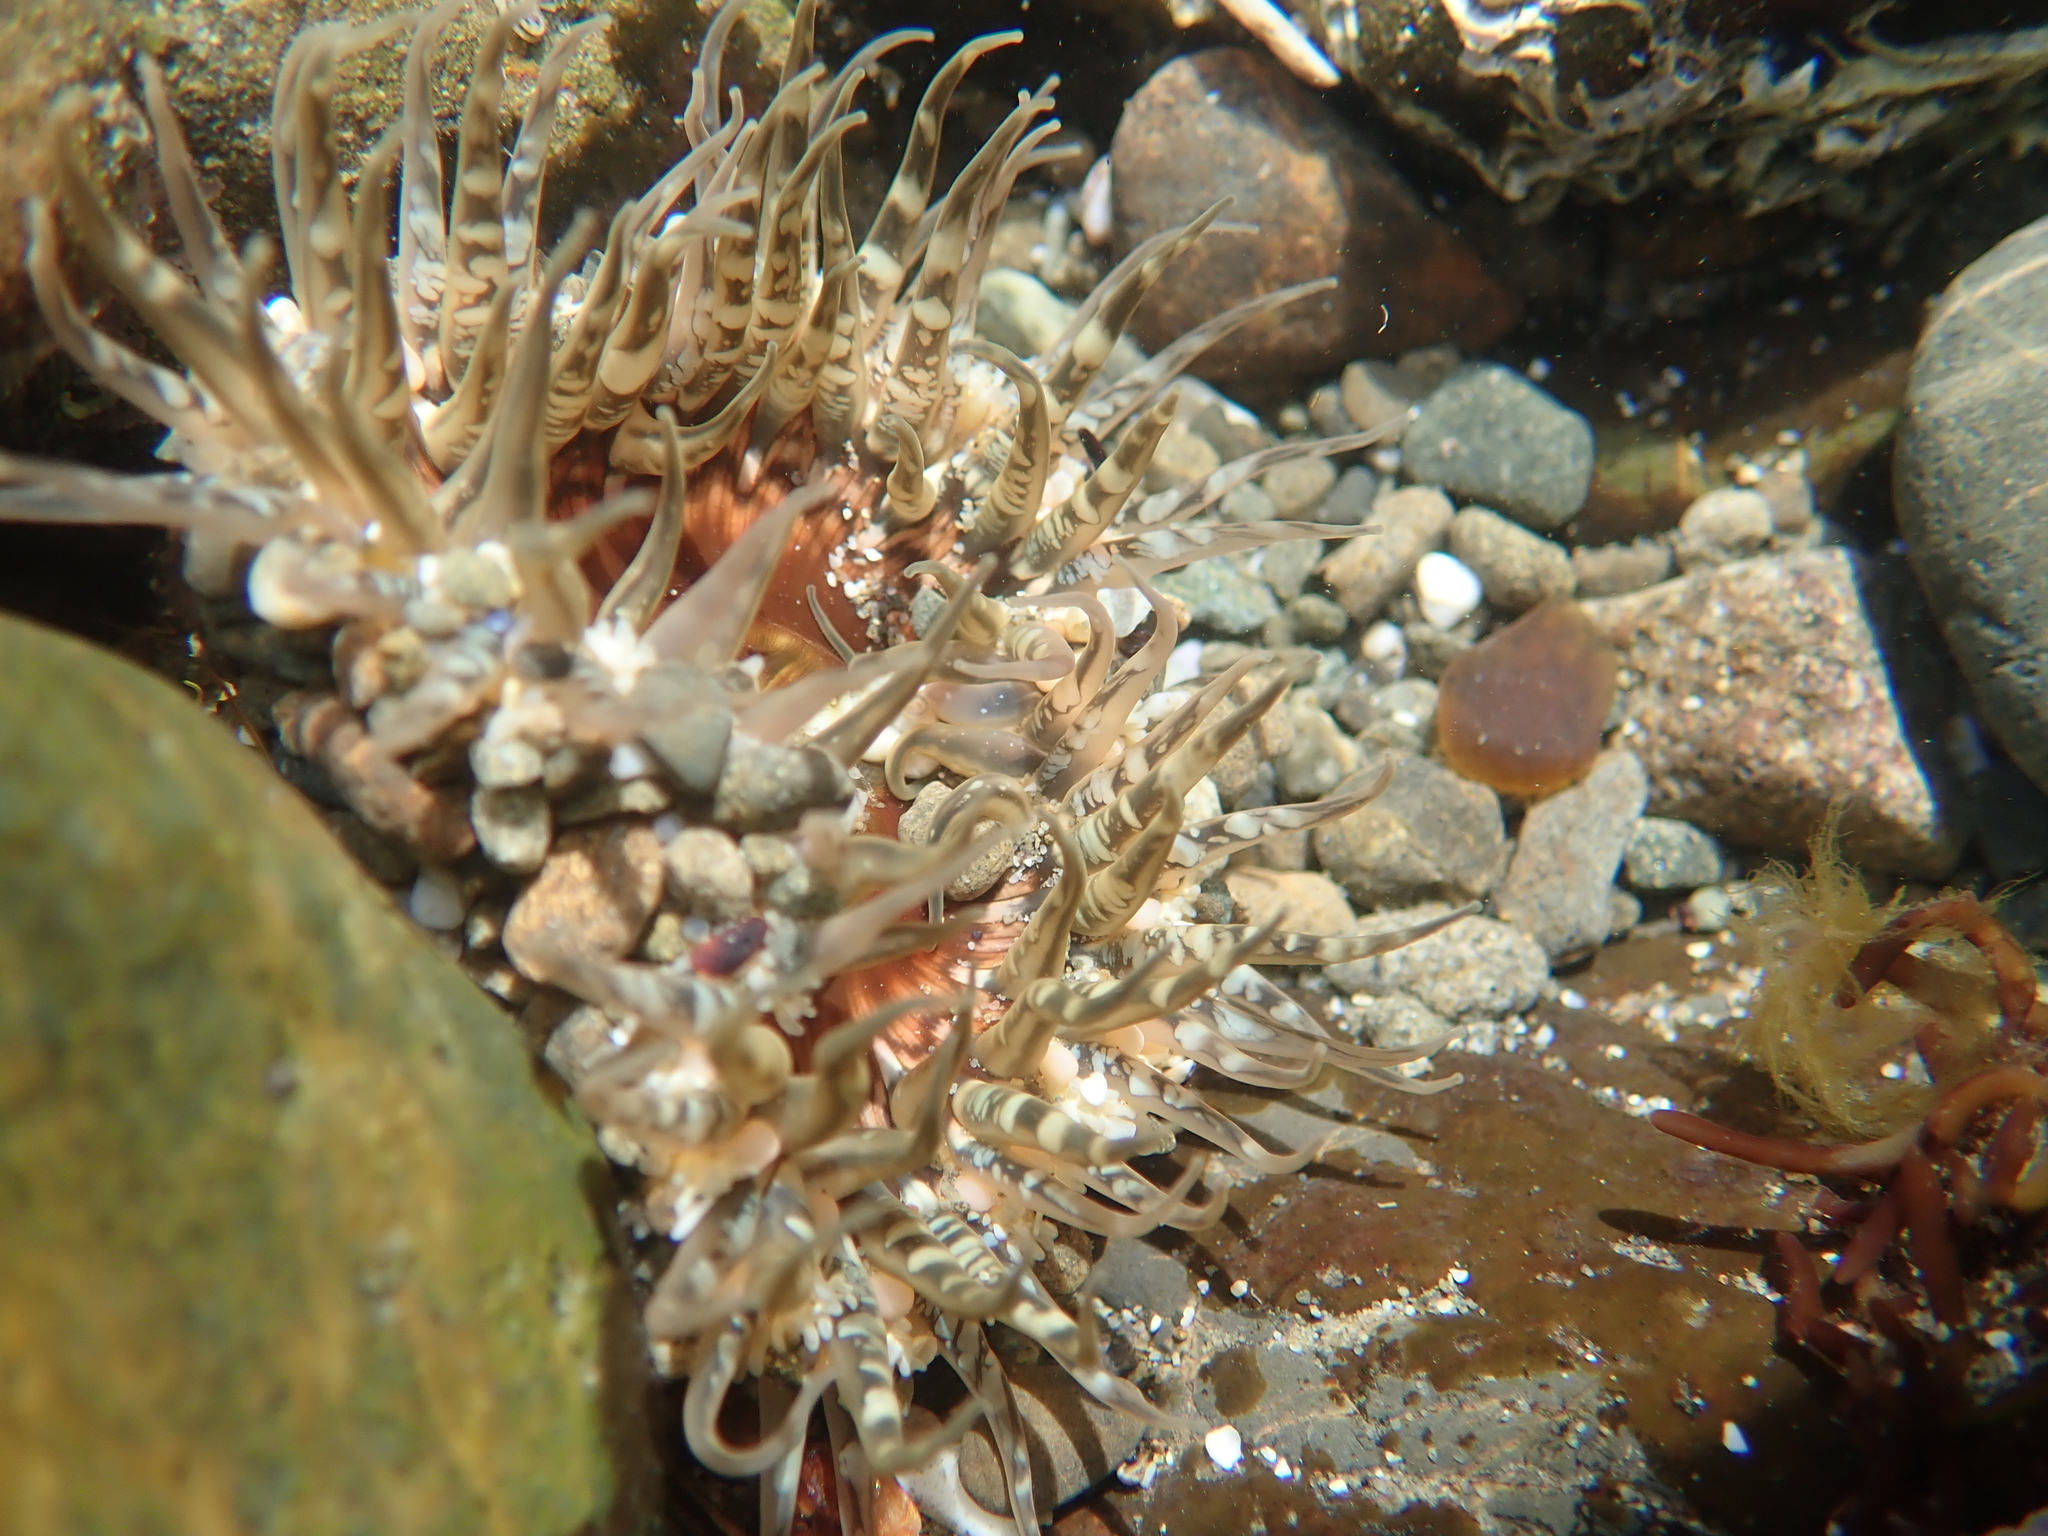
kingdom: Animalia
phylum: Cnidaria
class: Anthozoa
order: Actiniaria
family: Actiniidae
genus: Oulactis
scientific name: Oulactis muscosa
